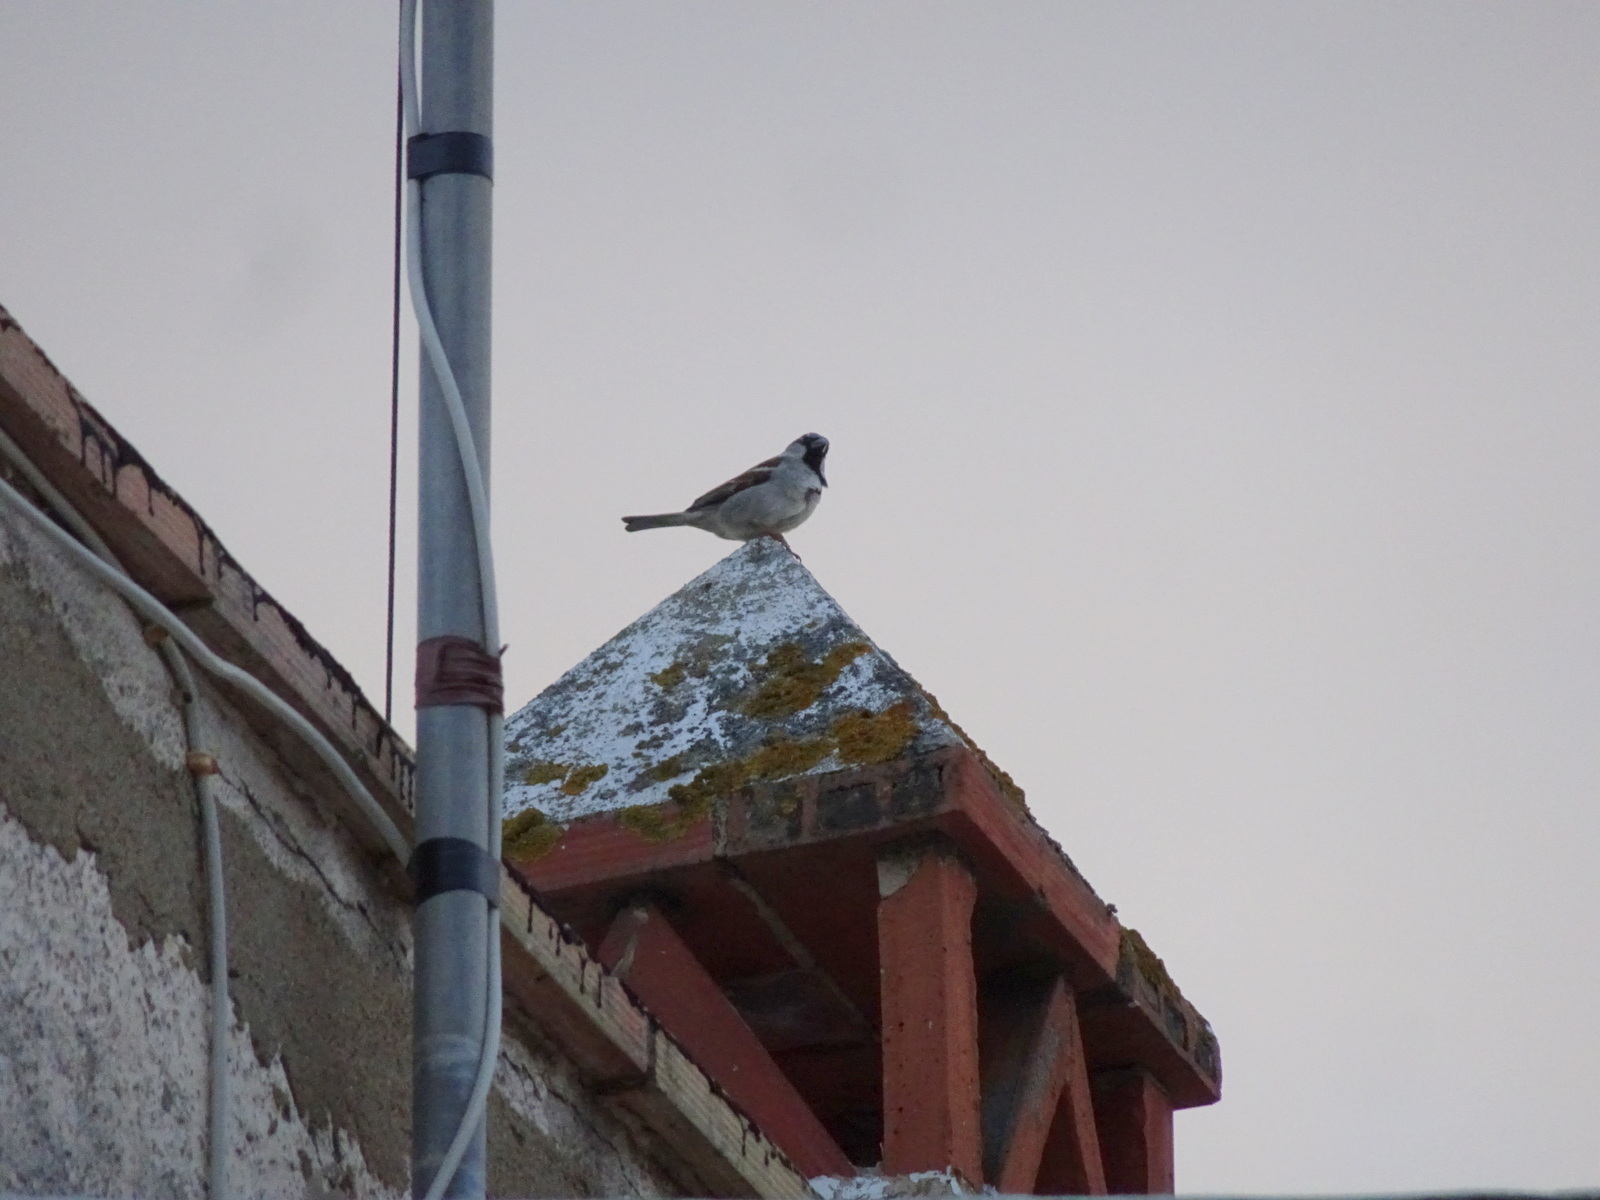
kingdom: Animalia
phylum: Chordata
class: Aves
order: Passeriformes
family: Passeridae
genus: Passer
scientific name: Passer domesticus
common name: House sparrow
